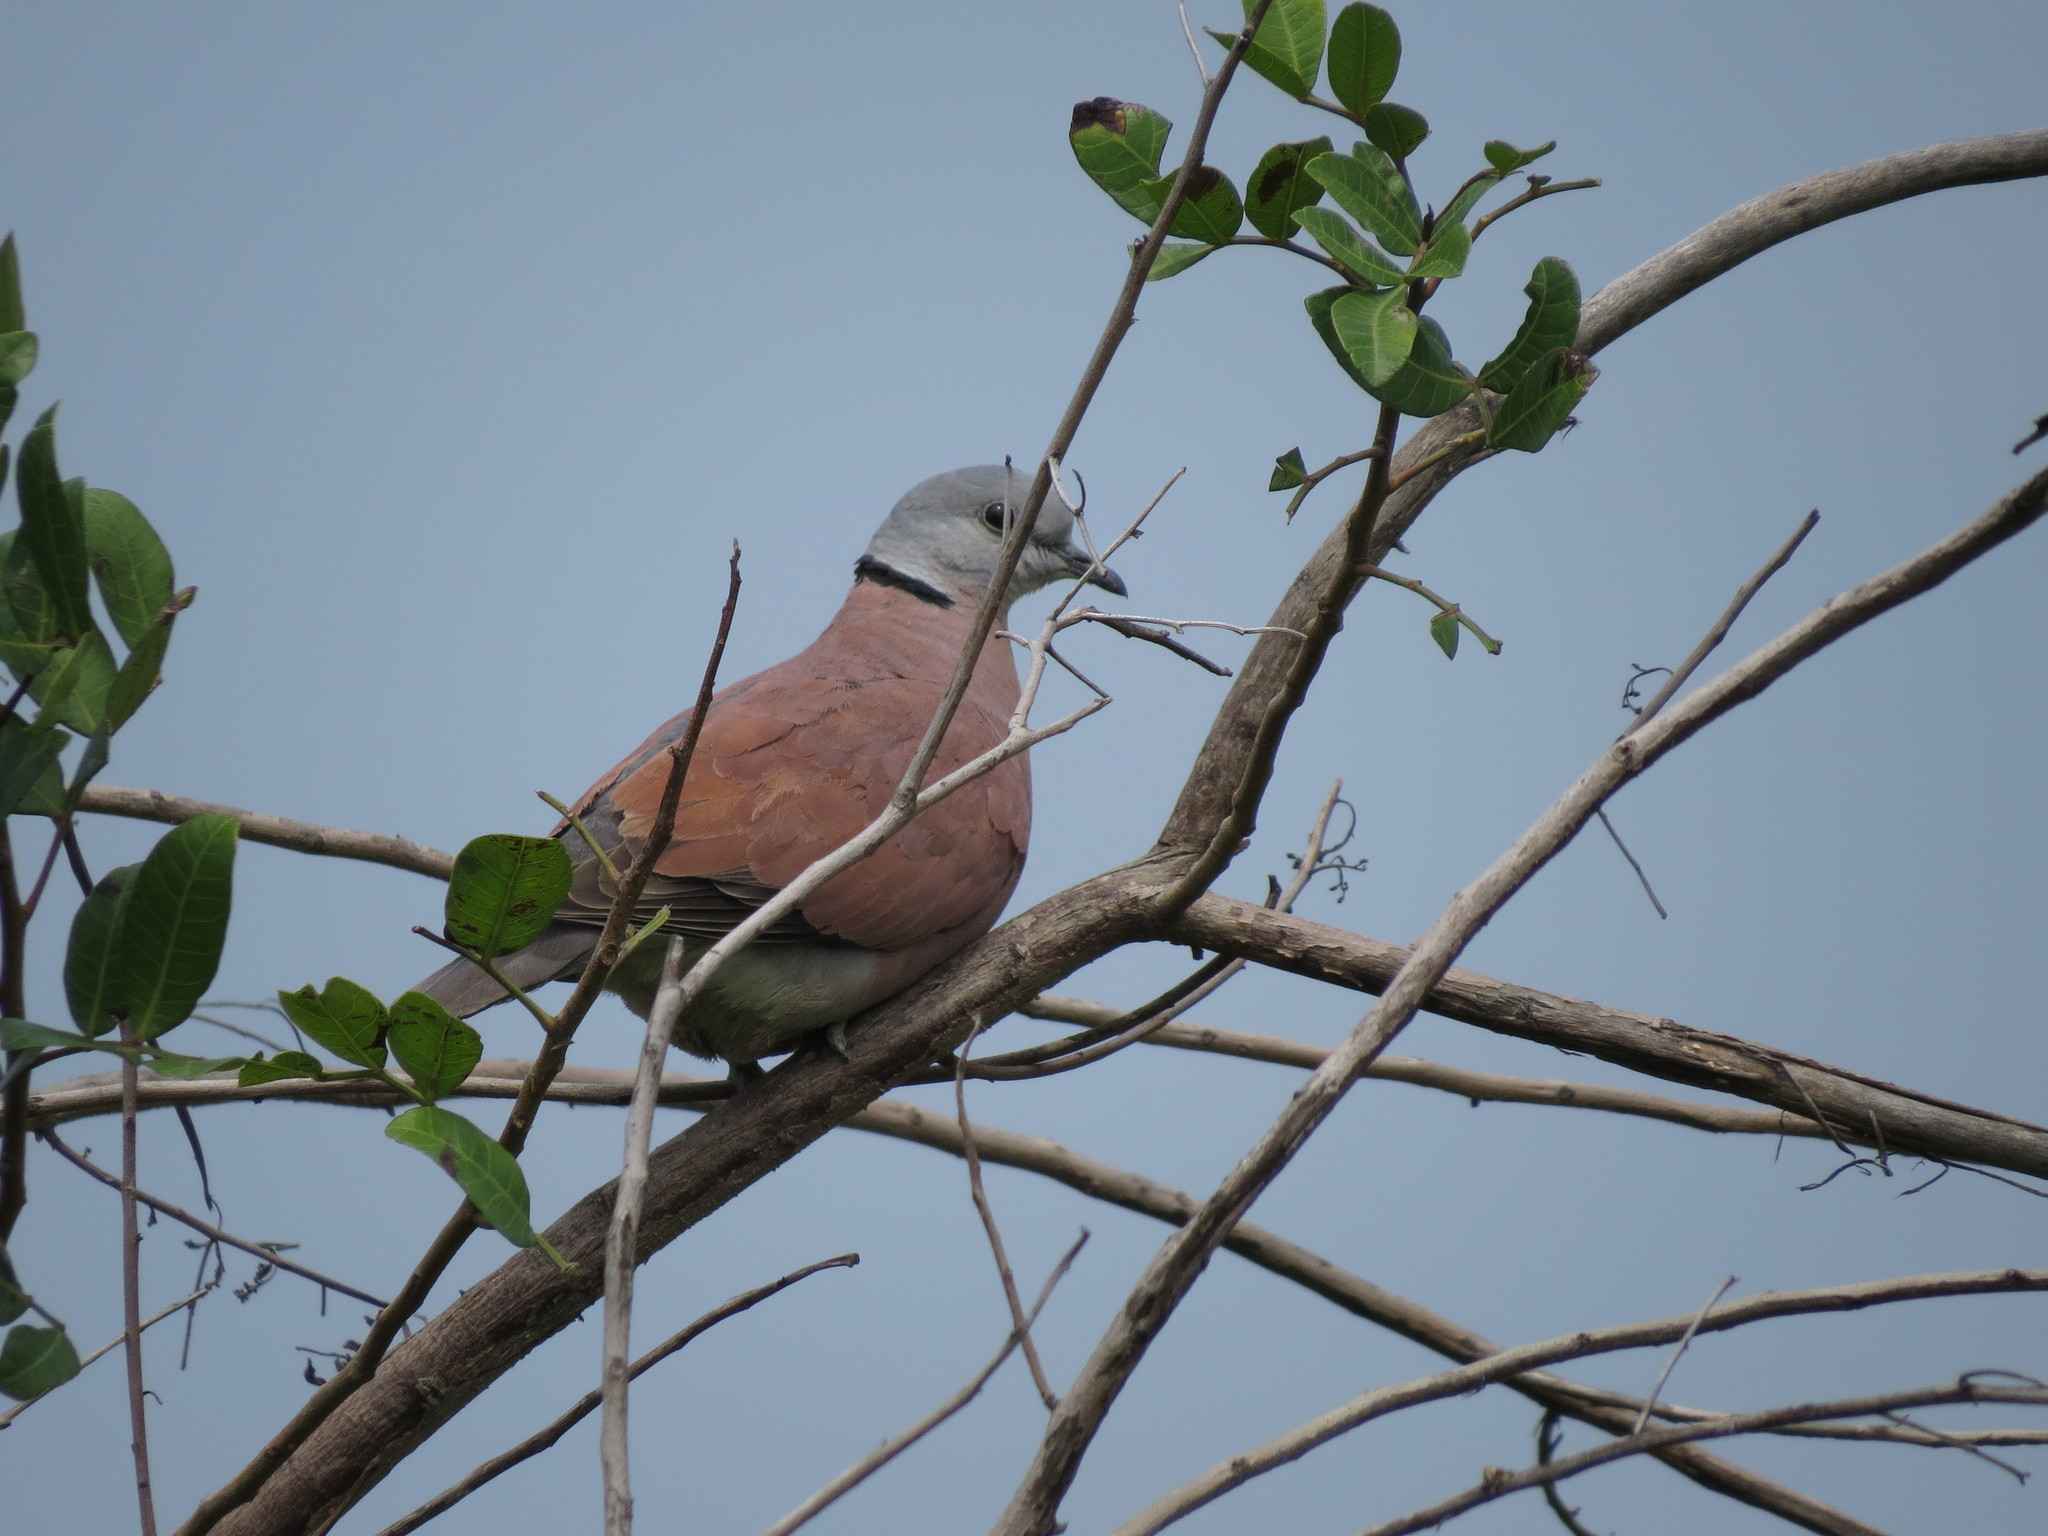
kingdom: Animalia
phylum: Chordata
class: Aves
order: Columbiformes
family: Columbidae
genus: Streptopelia
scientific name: Streptopelia tranquebarica
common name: Red turtle dove
